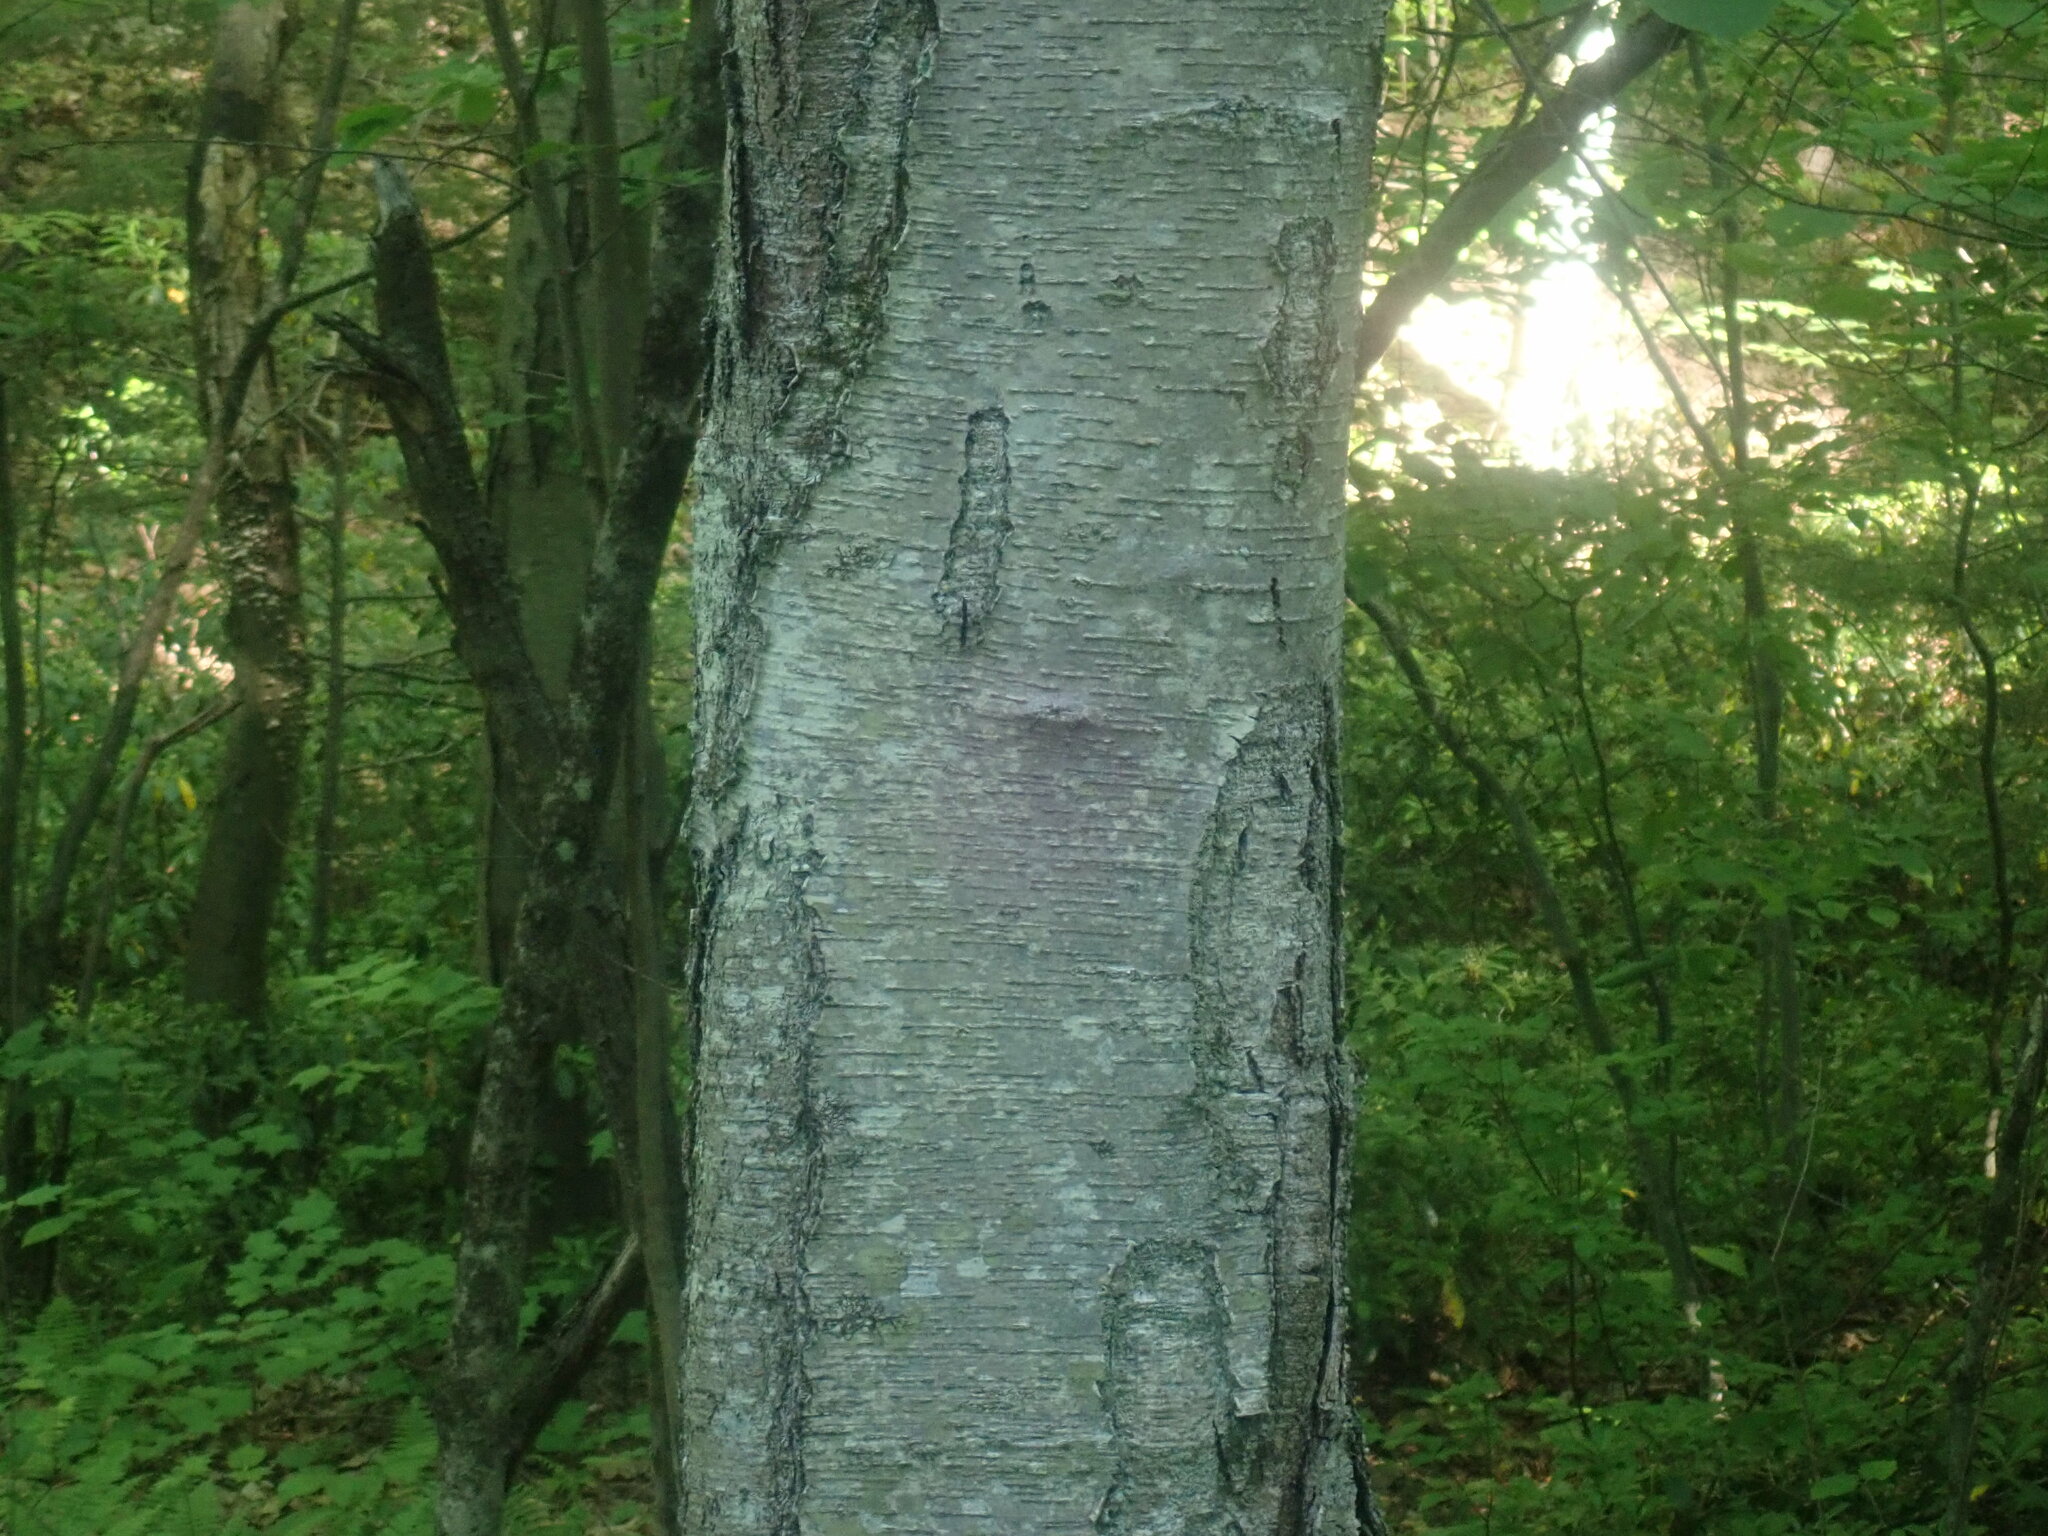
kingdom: Plantae
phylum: Tracheophyta
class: Magnoliopsida
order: Fagales
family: Betulaceae
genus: Betula
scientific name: Betula lenta
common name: Black birch
